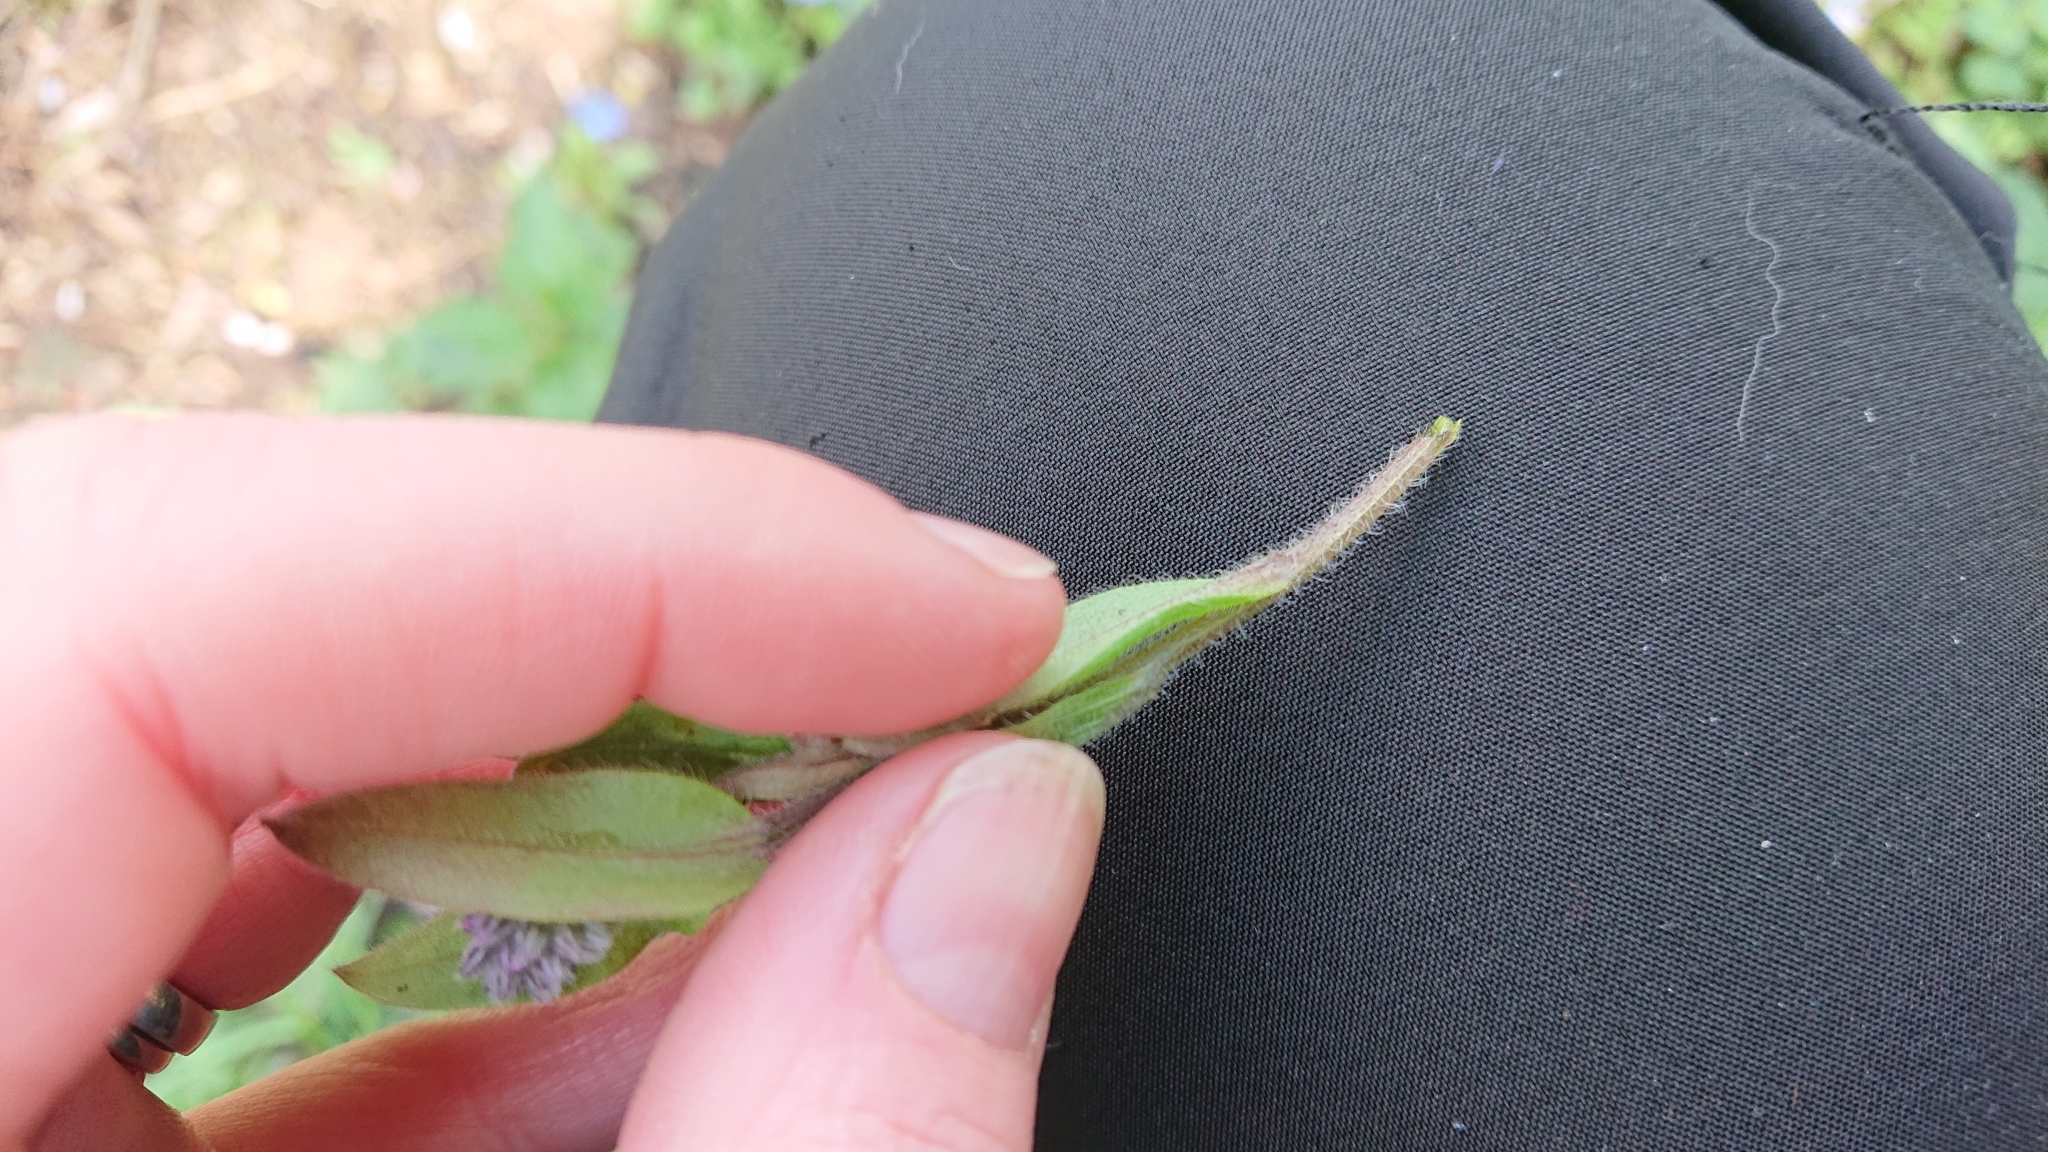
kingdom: Plantae
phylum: Tracheophyta
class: Magnoliopsida
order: Boraginales
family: Boraginaceae
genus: Myosotis
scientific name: Myosotis sylvatica
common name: Wood forget-me-not
